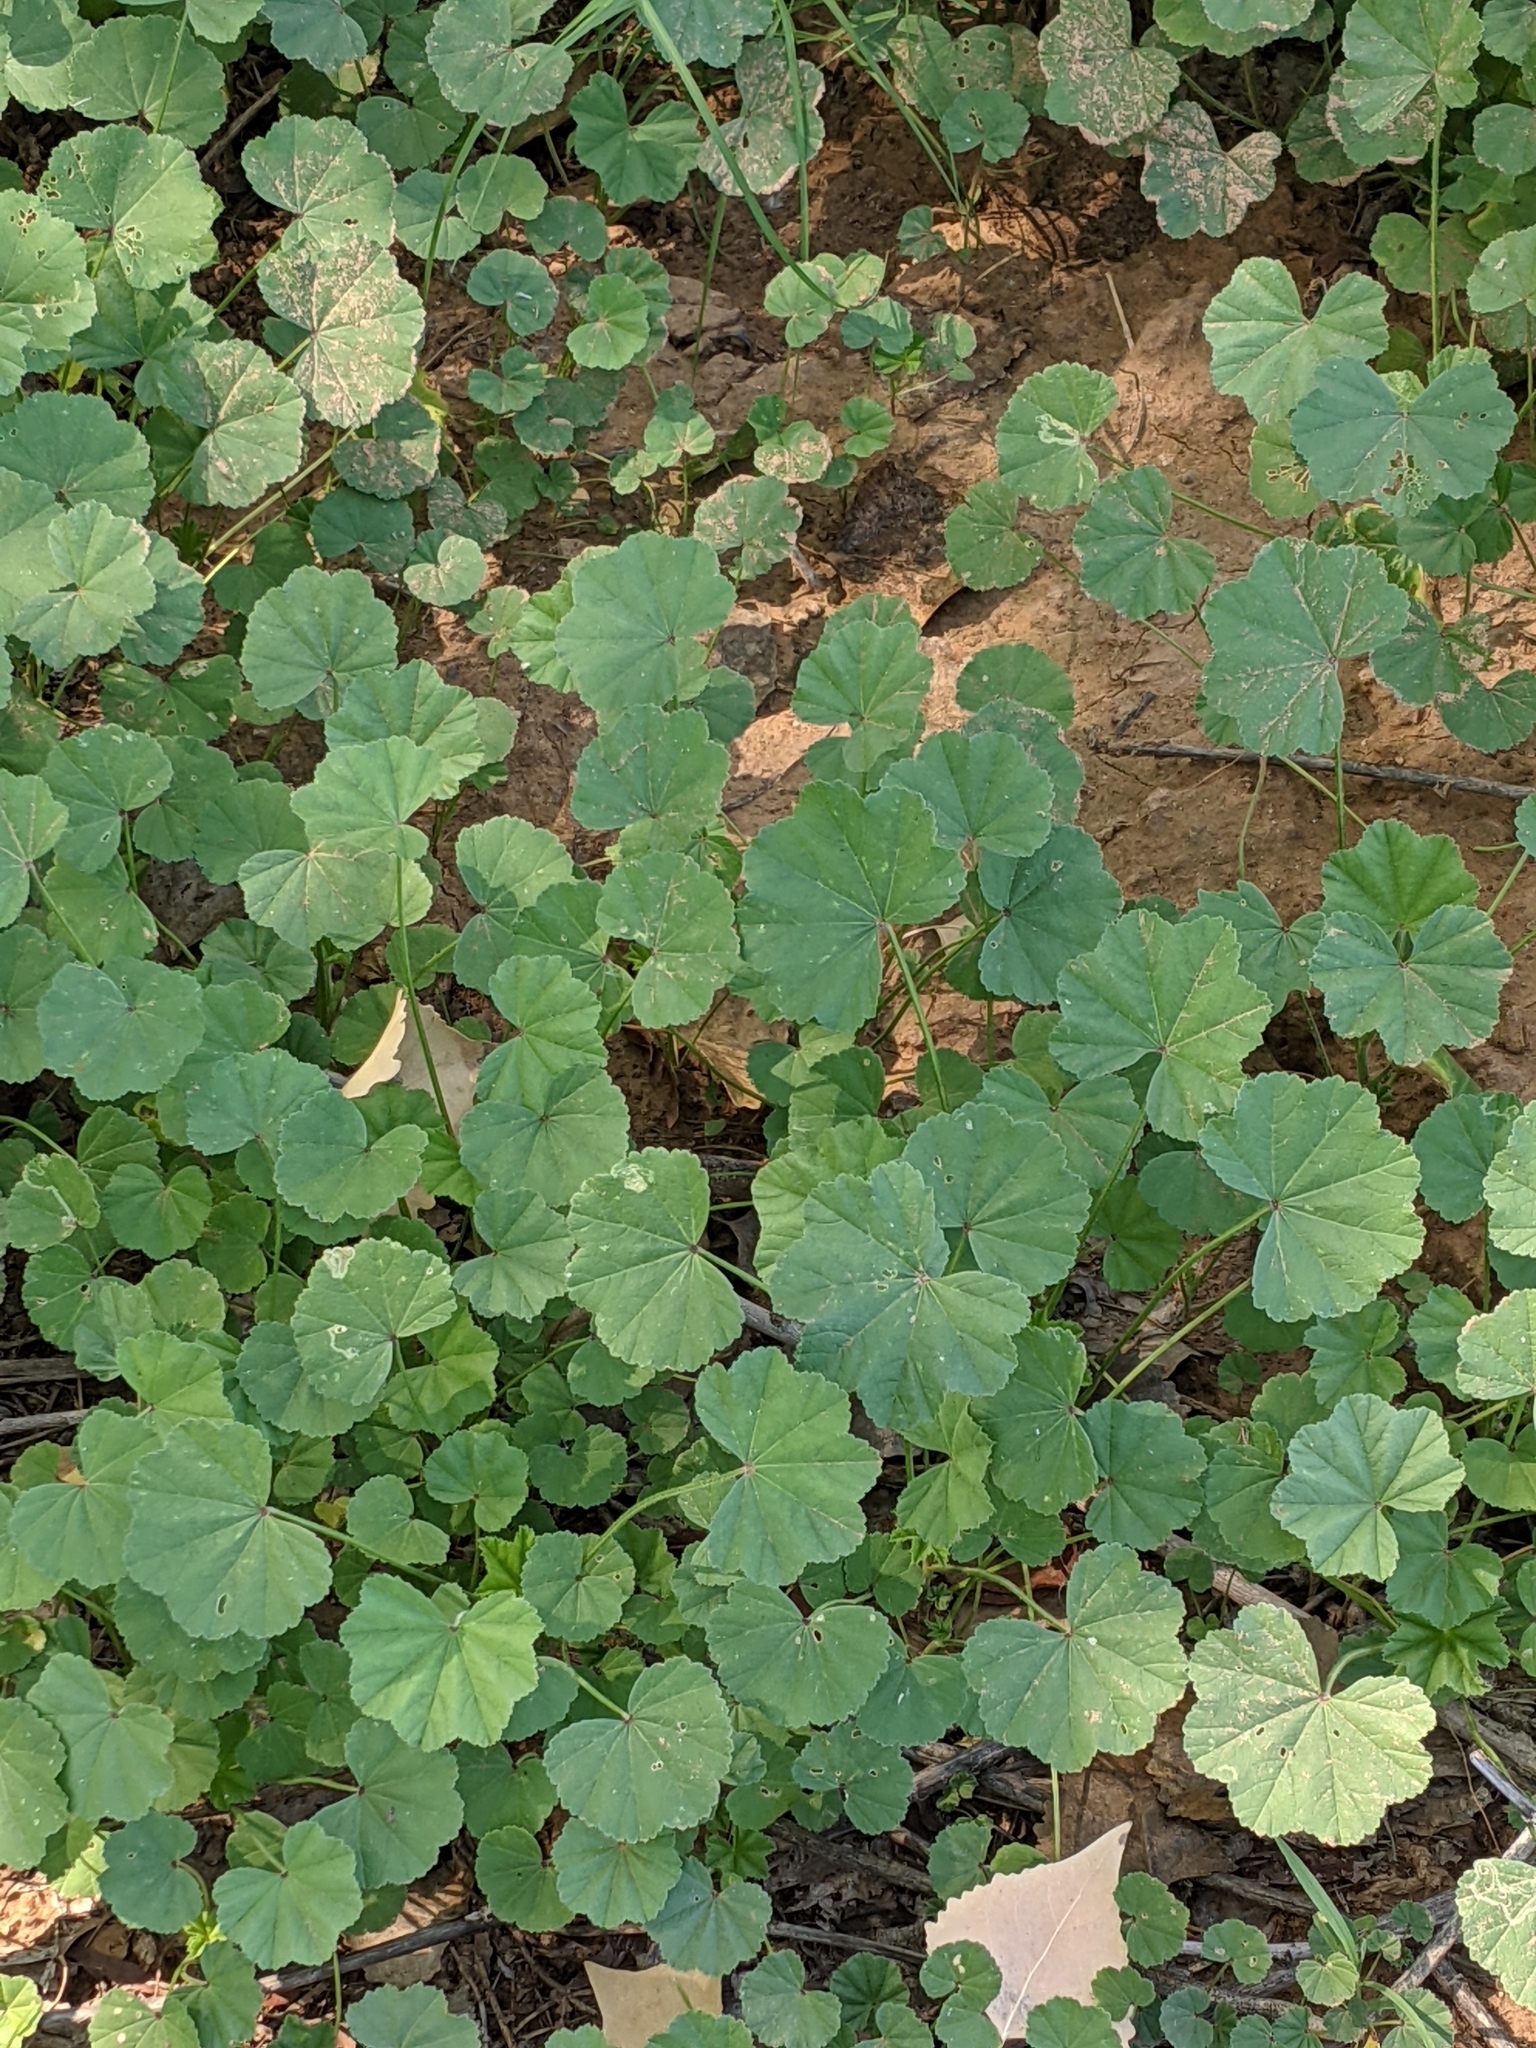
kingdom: Plantae
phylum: Tracheophyta
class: Magnoliopsida
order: Malvales
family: Malvaceae
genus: Malva
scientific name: Malva parviflora
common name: Least mallow
